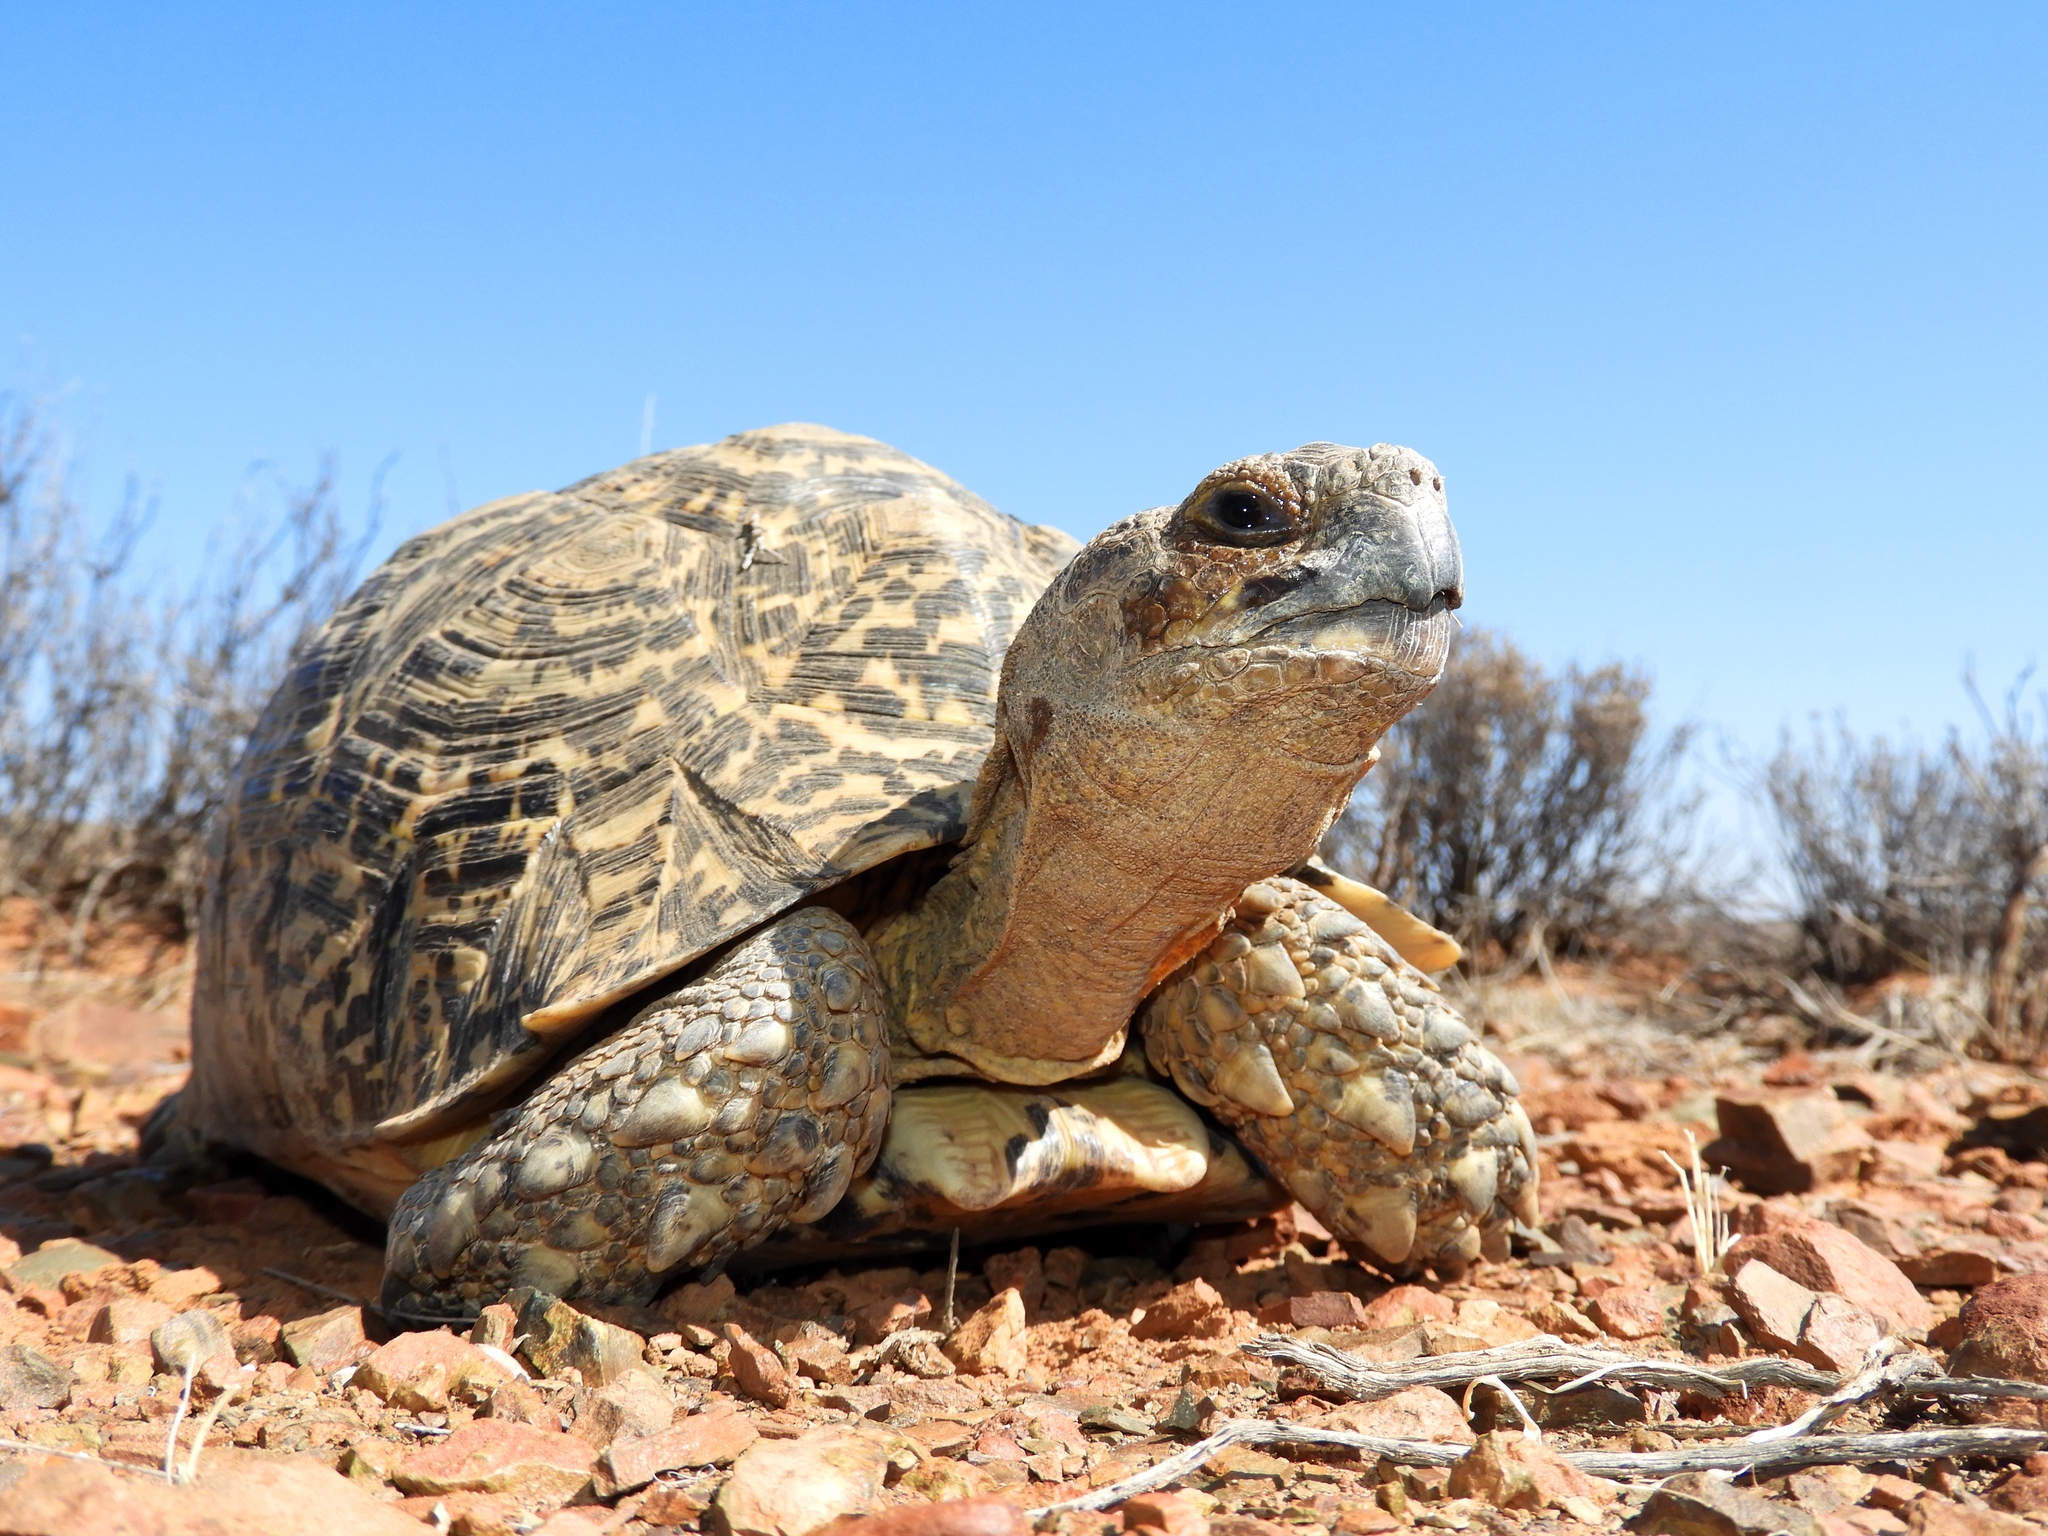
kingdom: Animalia
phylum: Chordata
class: Testudines
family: Testudinidae
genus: Stigmochelys
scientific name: Stigmochelys pardalis
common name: Leopard tortoise
